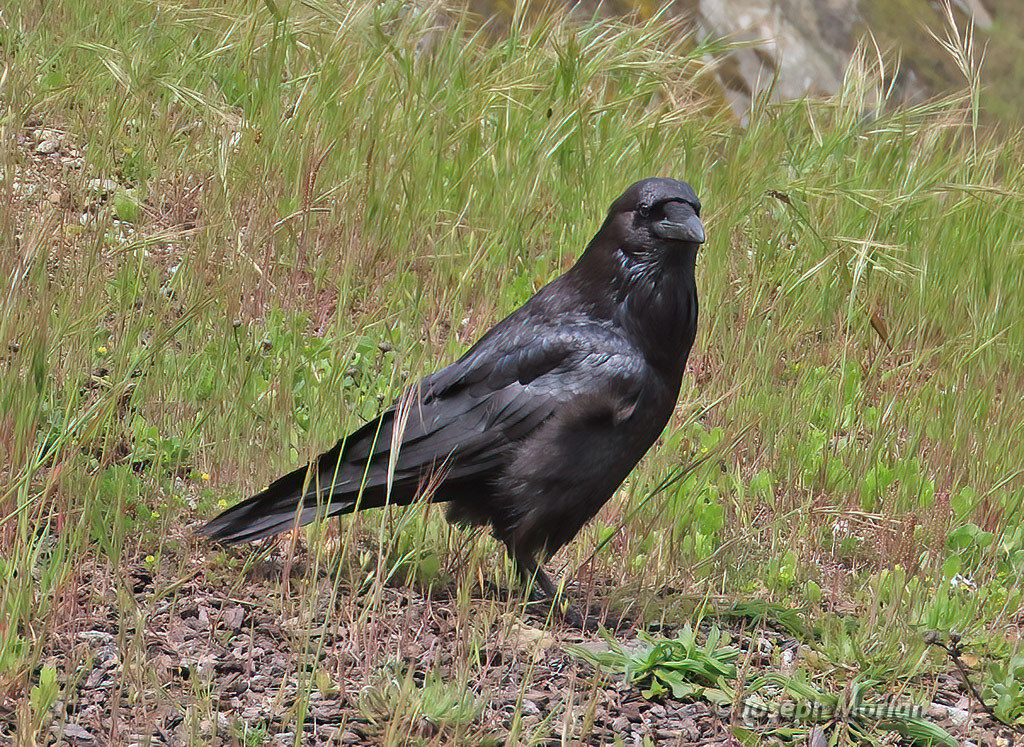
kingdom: Animalia
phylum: Chordata
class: Aves
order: Passeriformes
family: Corvidae
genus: Corvus
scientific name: Corvus corax
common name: Common raven
